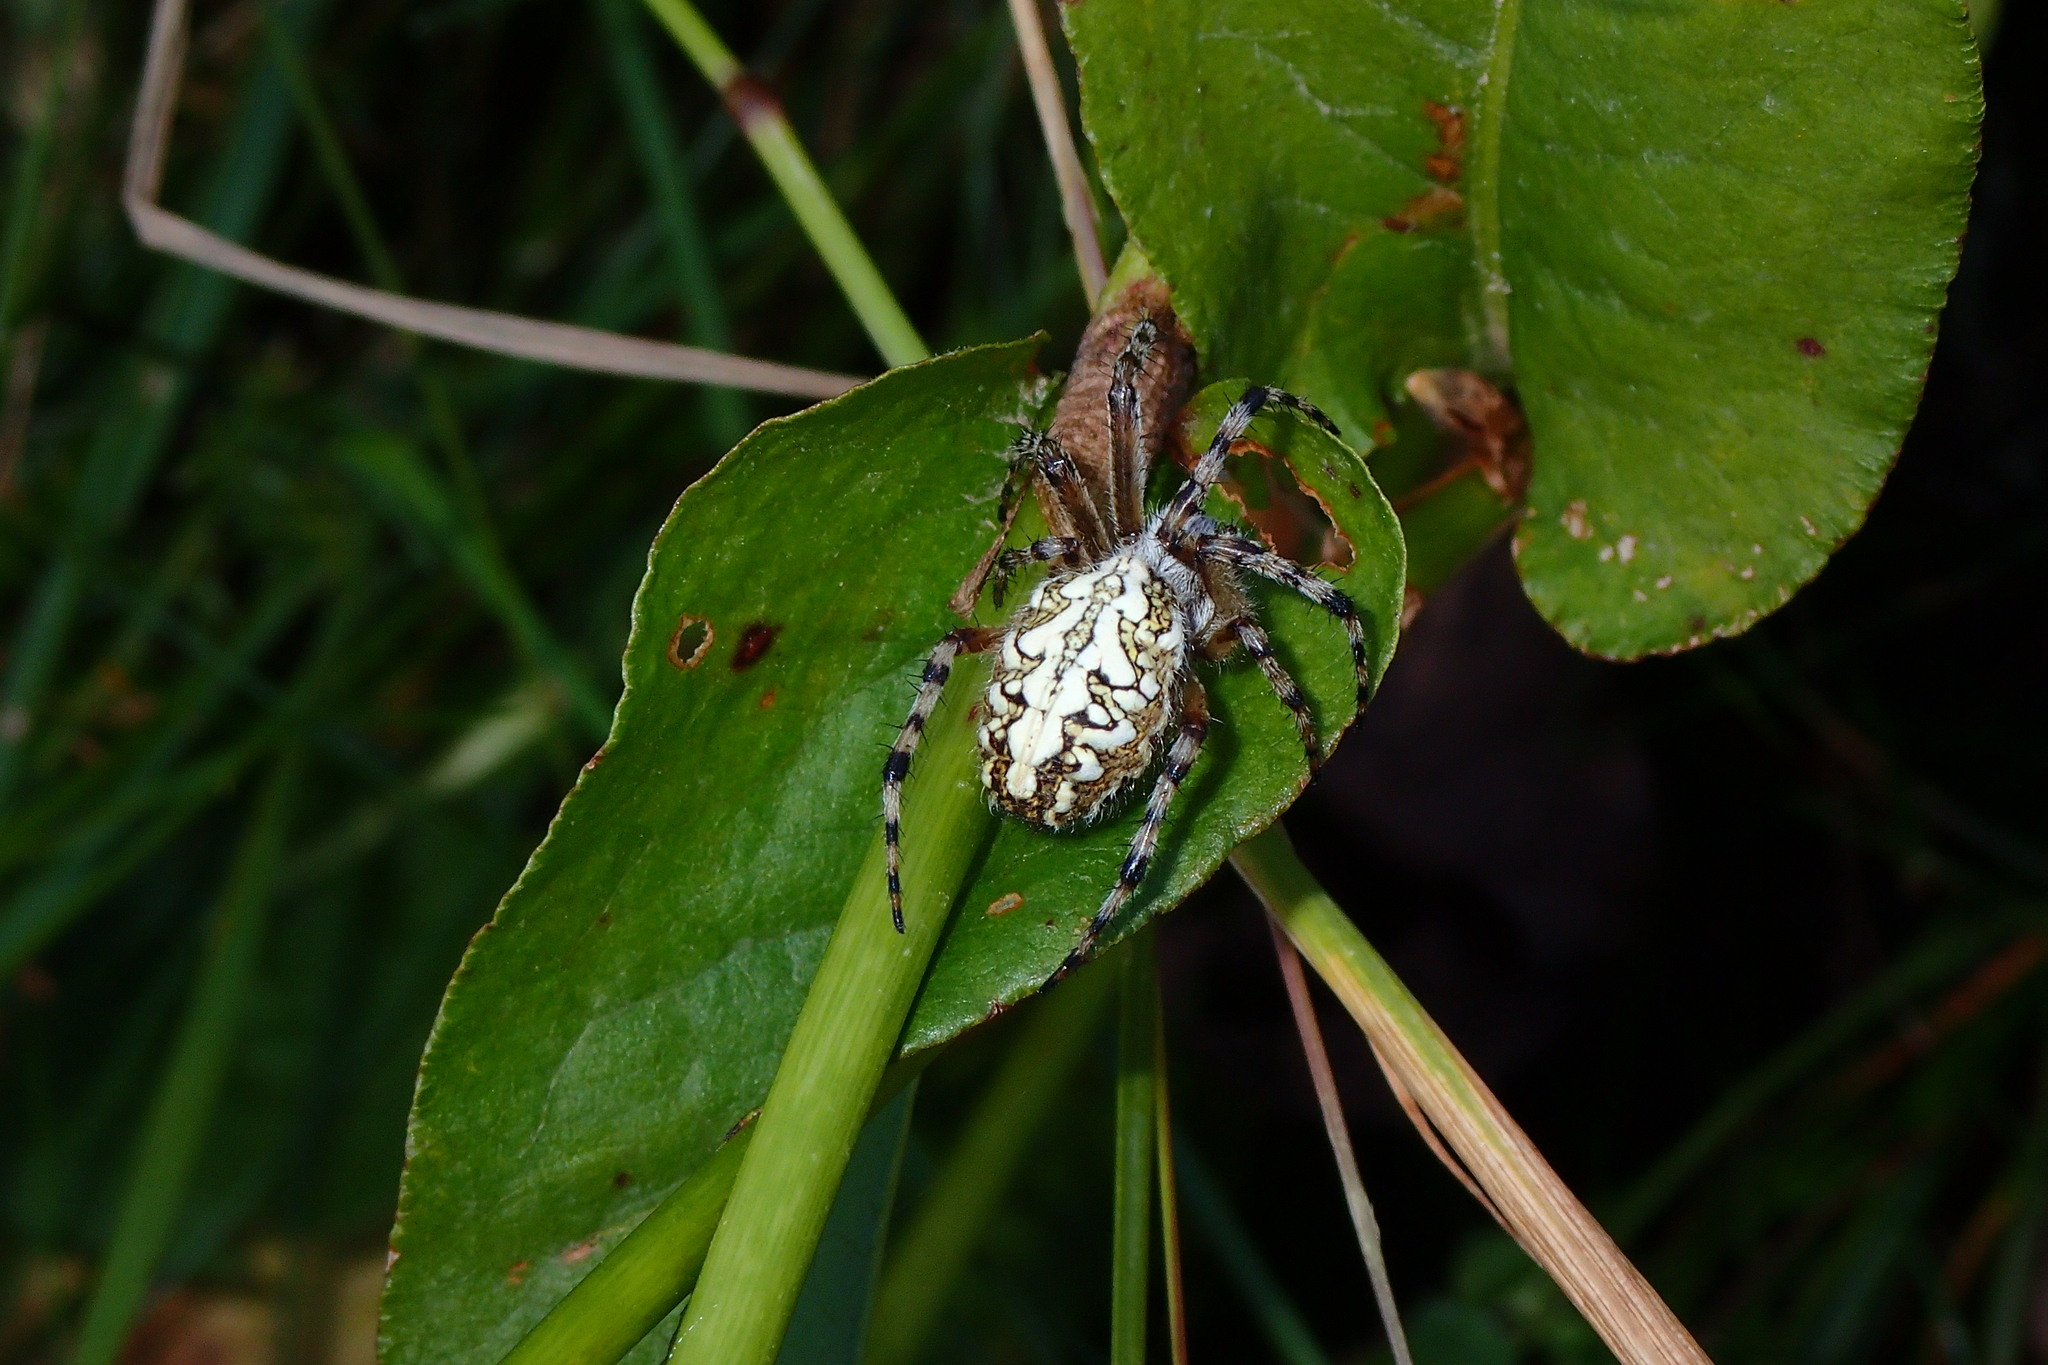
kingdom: Animalia
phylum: Arthropoda
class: Arachnida
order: Araneae
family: Araneidae
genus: Aculepeira
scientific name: Aculepeira ceropegia
